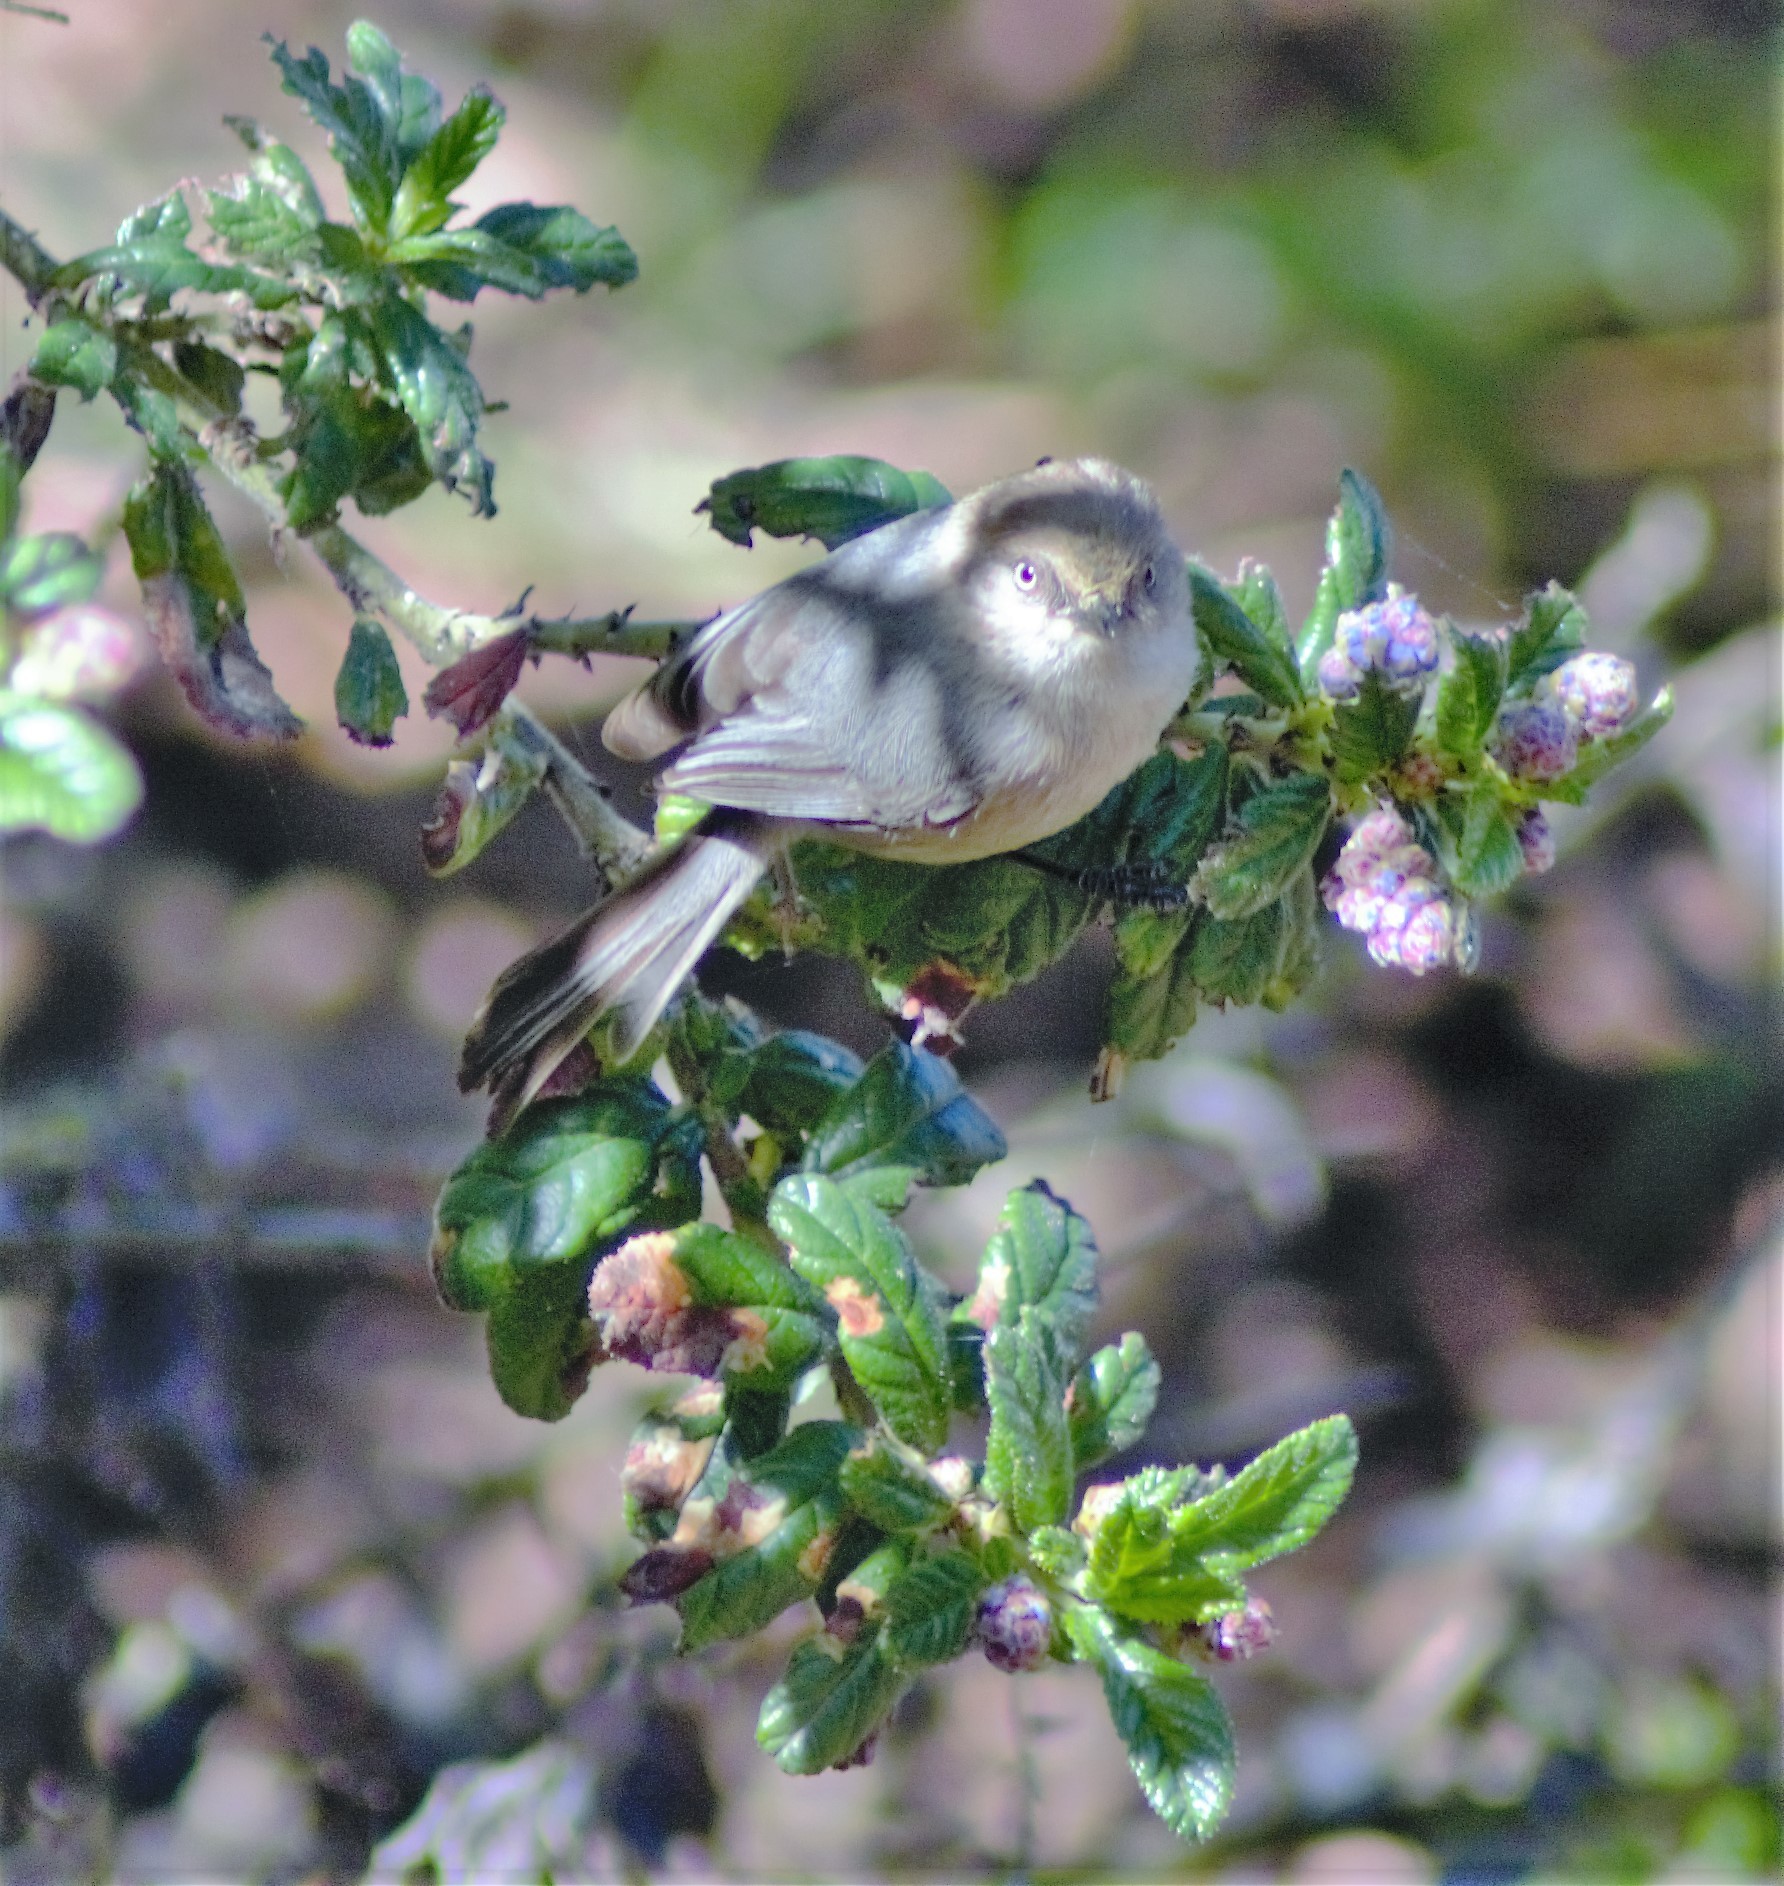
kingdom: Animalia
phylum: Chordata
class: Aves
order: Passeriformes
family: Aegithalidae
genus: Psaltriparus
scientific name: Psaltriparus minimus
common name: American bushtit
